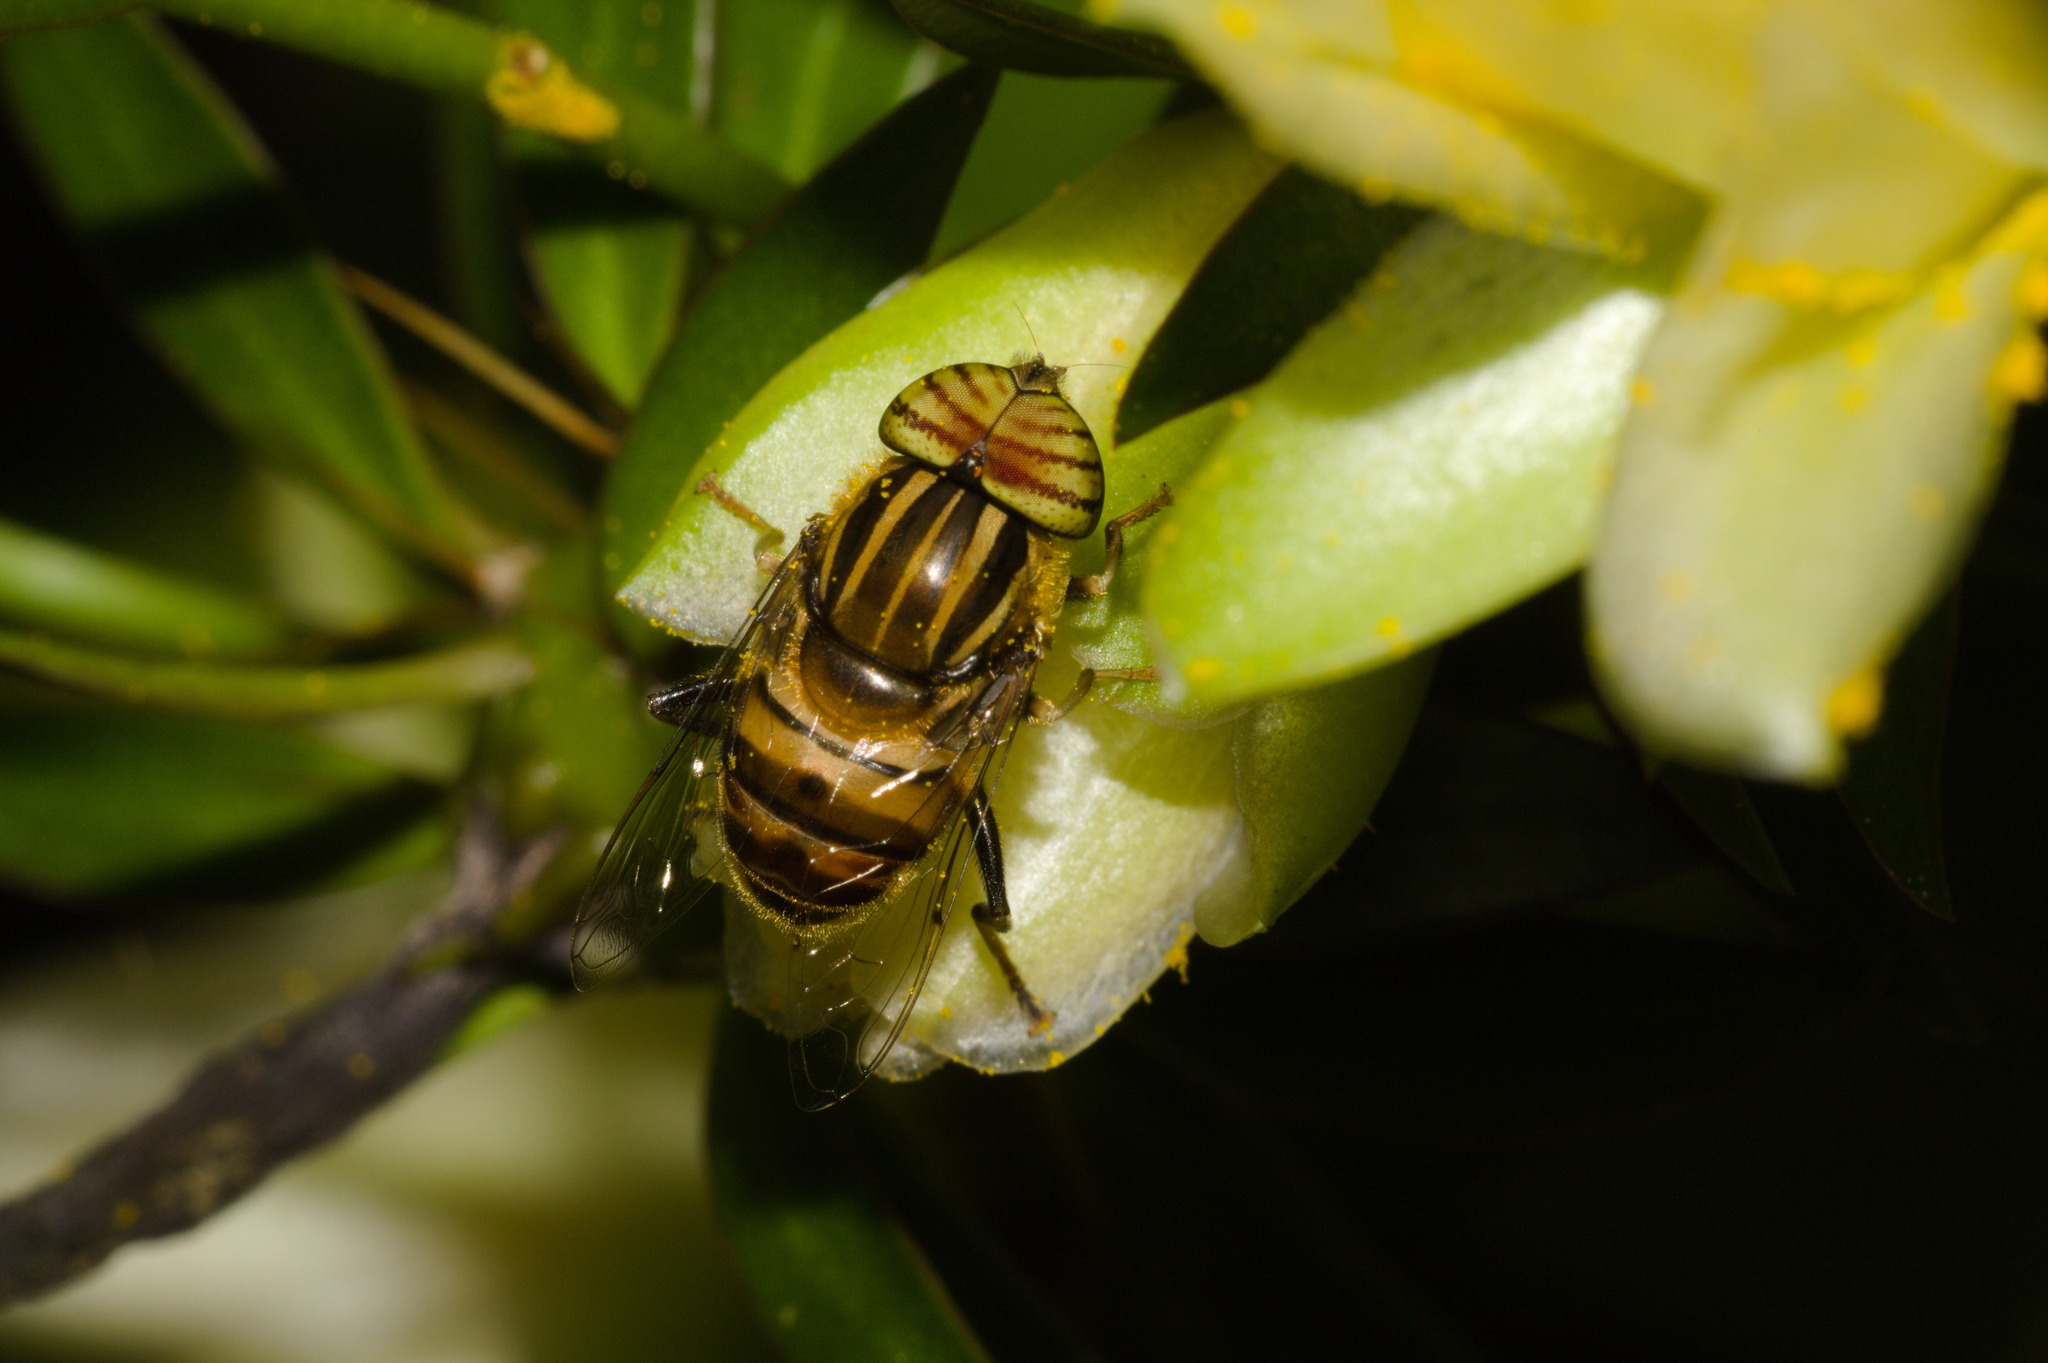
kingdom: Animalia
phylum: Arthropoda
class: Insecta
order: Diptera
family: Syrphidae
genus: Eristalinus
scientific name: Eristalinus taeniops
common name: Syrphid fly
